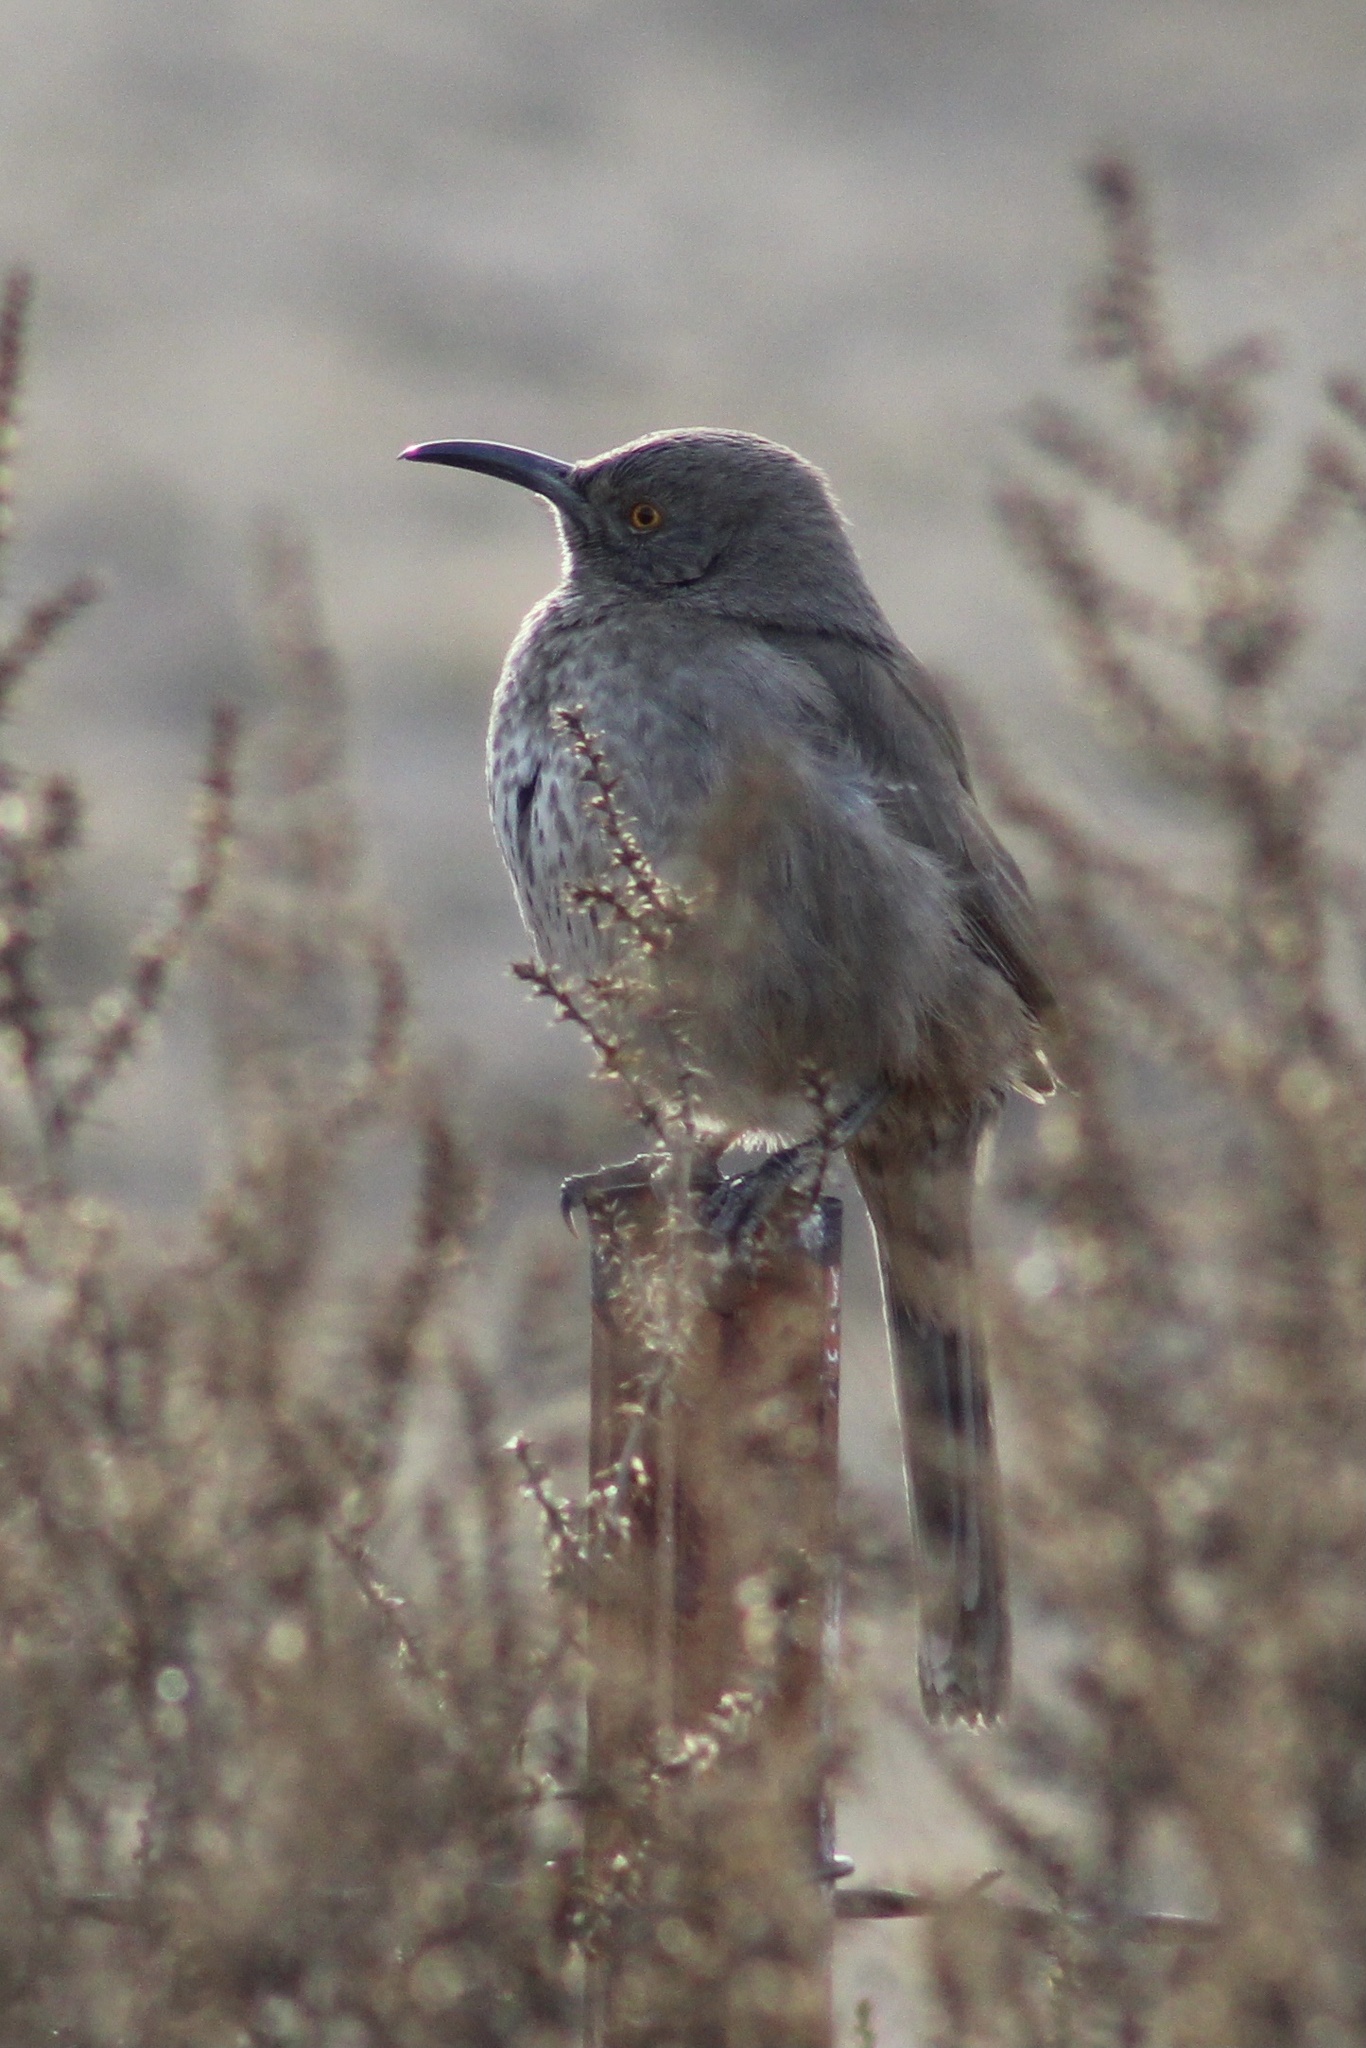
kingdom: Animalia
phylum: Chordata
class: Aves
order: Passeriformes
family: Mimidae
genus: Toxostoma
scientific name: Toxostoma curvirostre
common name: Curve-billed thrasher
